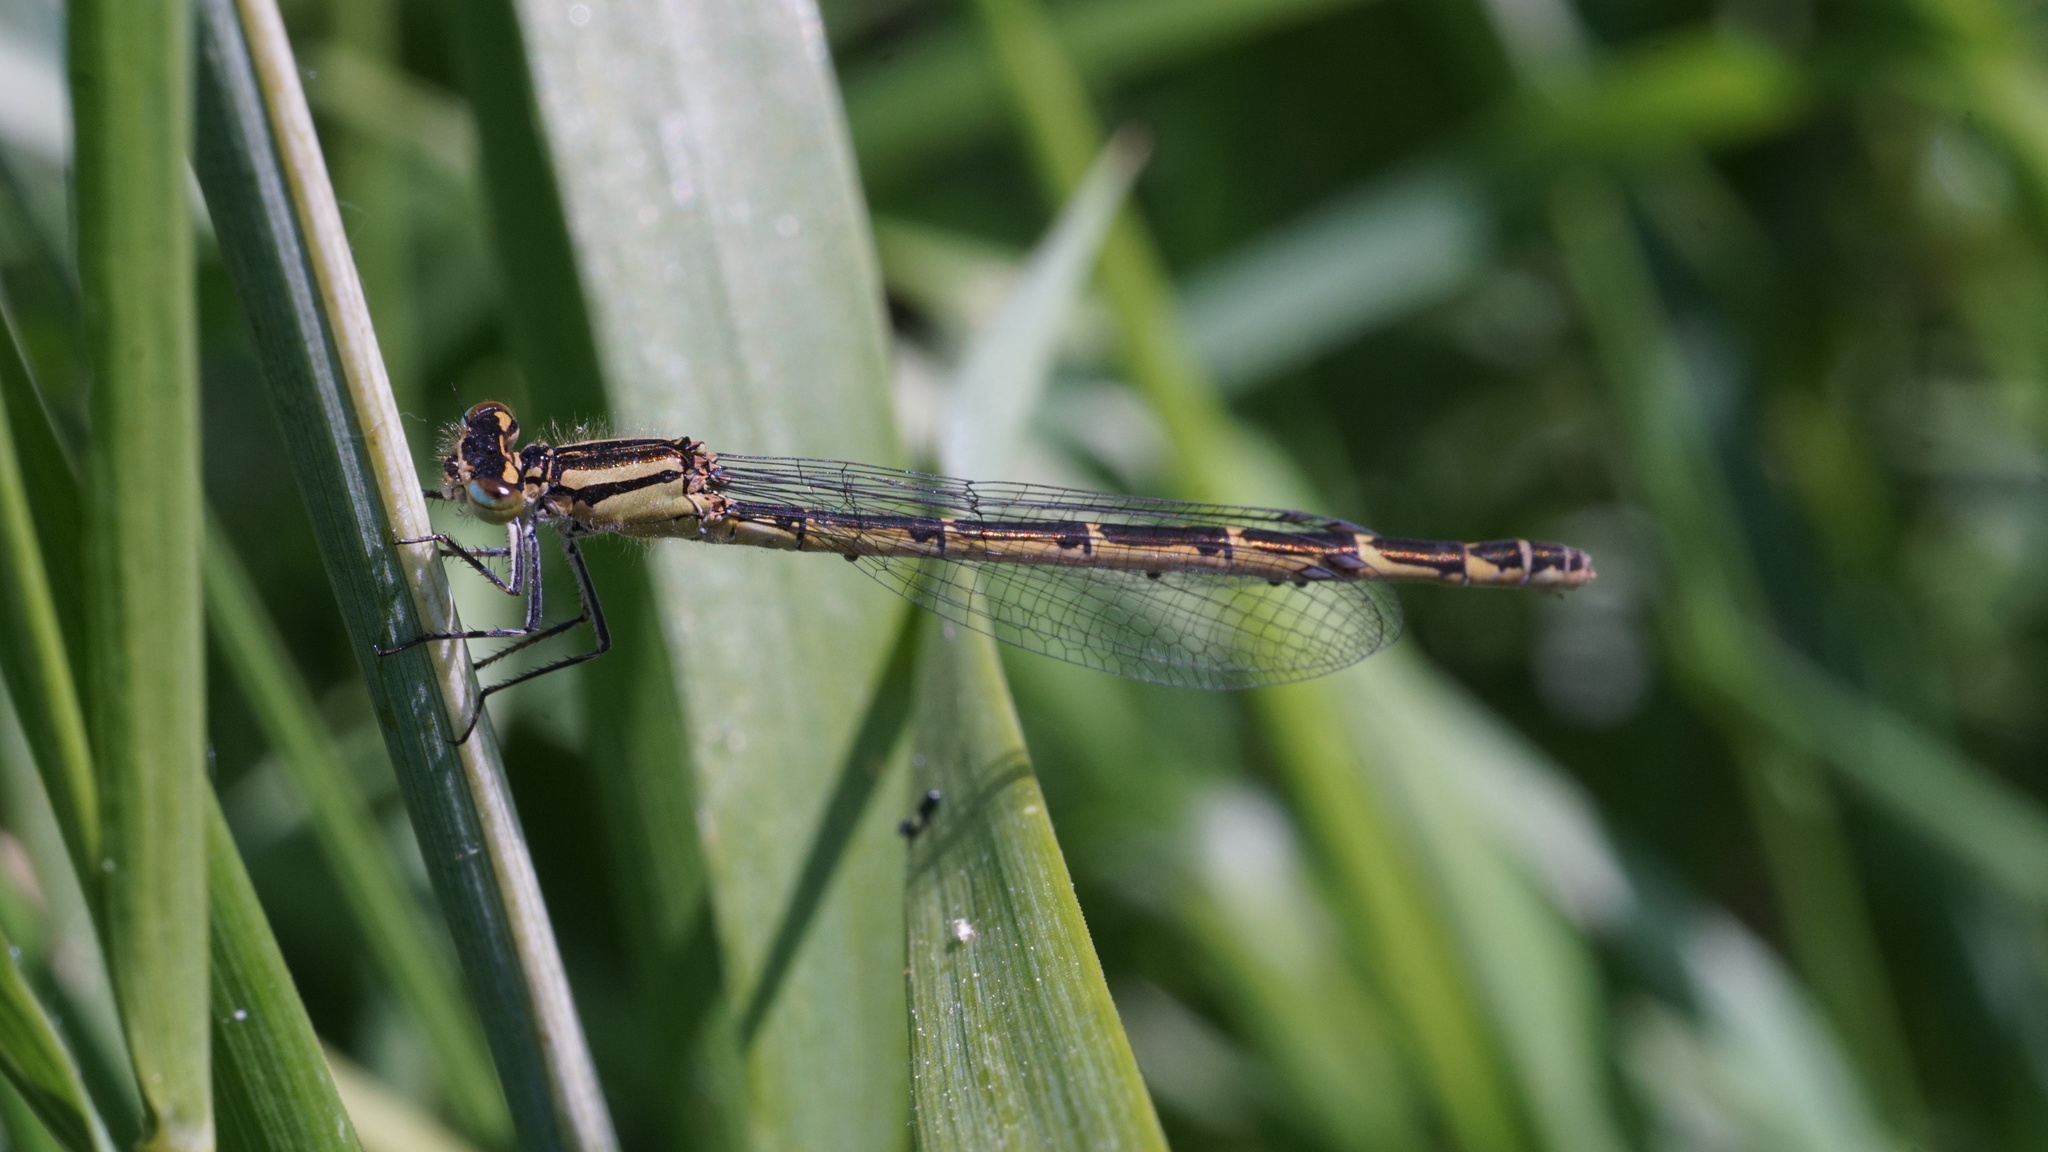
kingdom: Animalia
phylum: Arthropoda
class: Insecta
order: Odonata
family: Coenagrionidae
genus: Enallagma
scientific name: Enallagma cyathigerum
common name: Common blue damselfly
